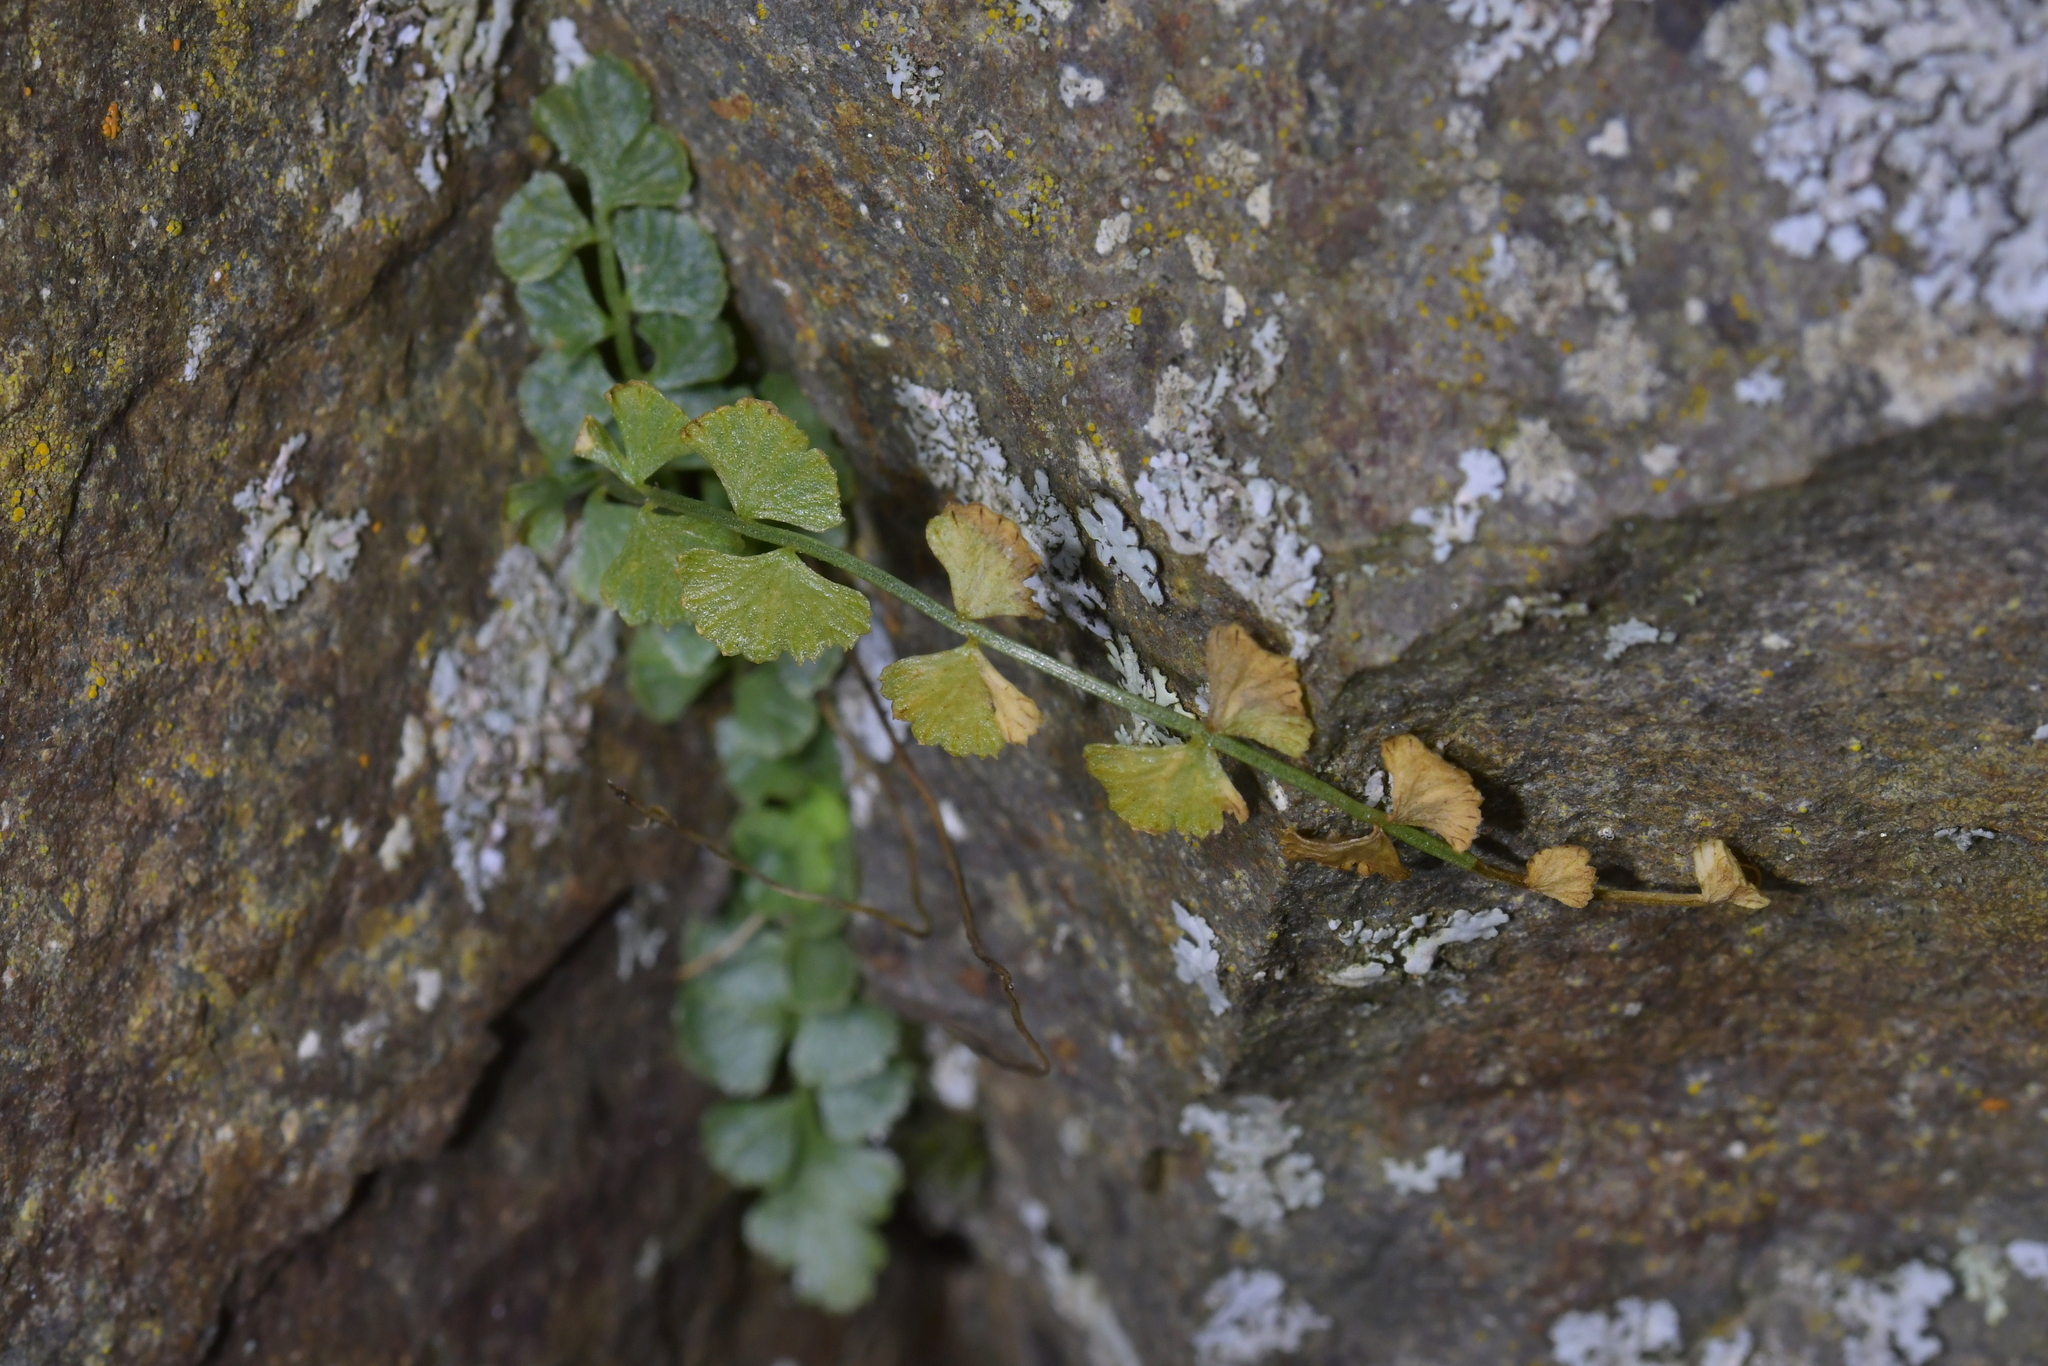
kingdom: Plantae
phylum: Tracheophyta
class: Polypodiopsida
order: Polypodiales
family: Aspleniaceae
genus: Asplenium
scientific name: Asplenium flabellifolium
